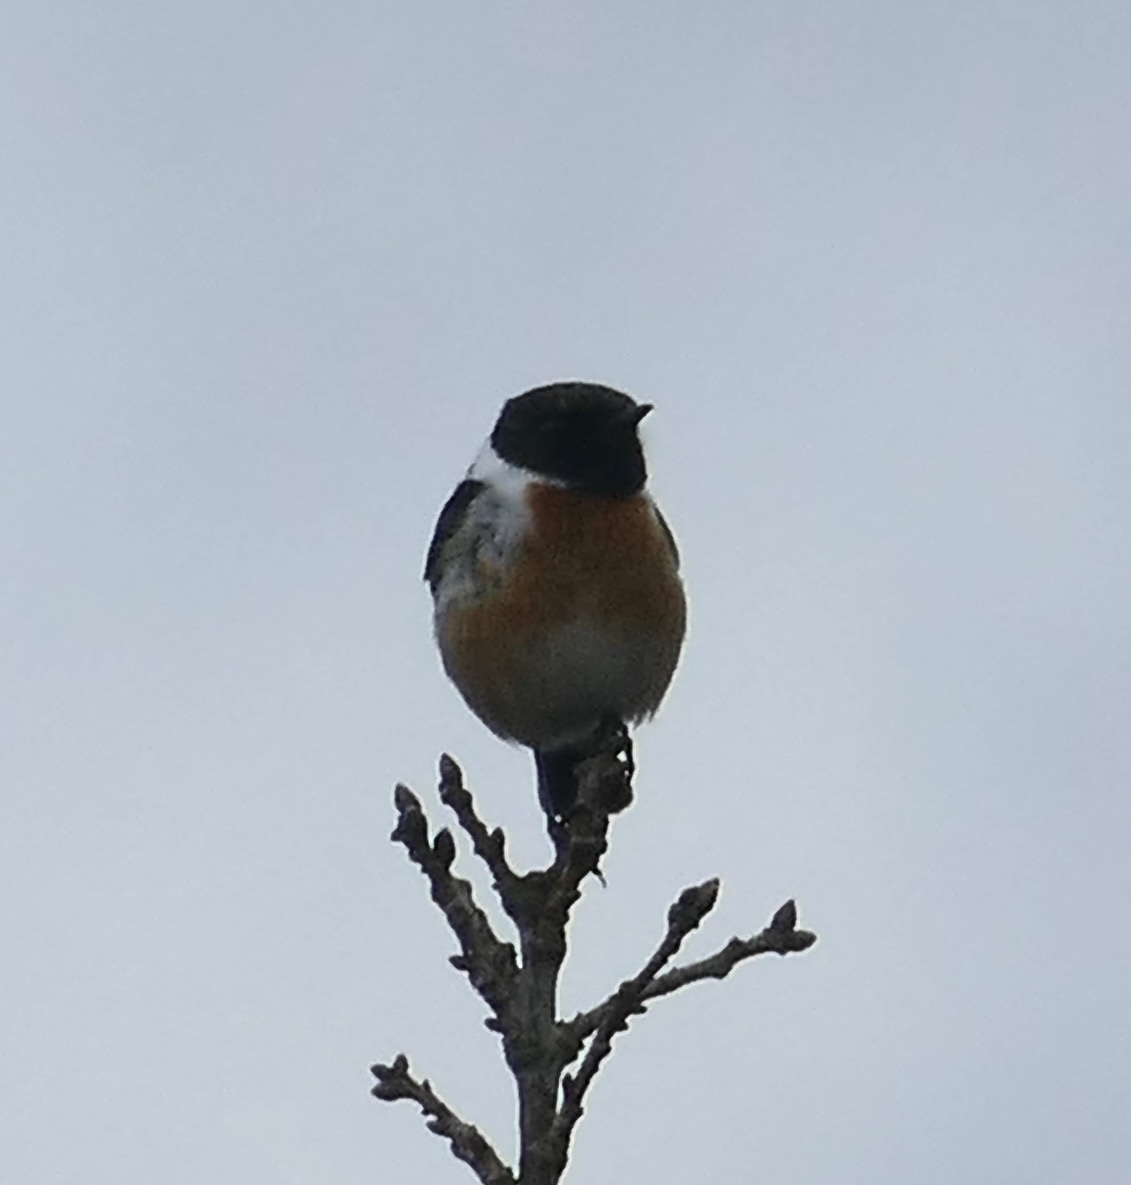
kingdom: Animalia
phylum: Chordata
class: Aves
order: Passeriformes
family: Muscicapidae
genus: Saxicola
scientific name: Saxicola rubicola
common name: European stonechat
